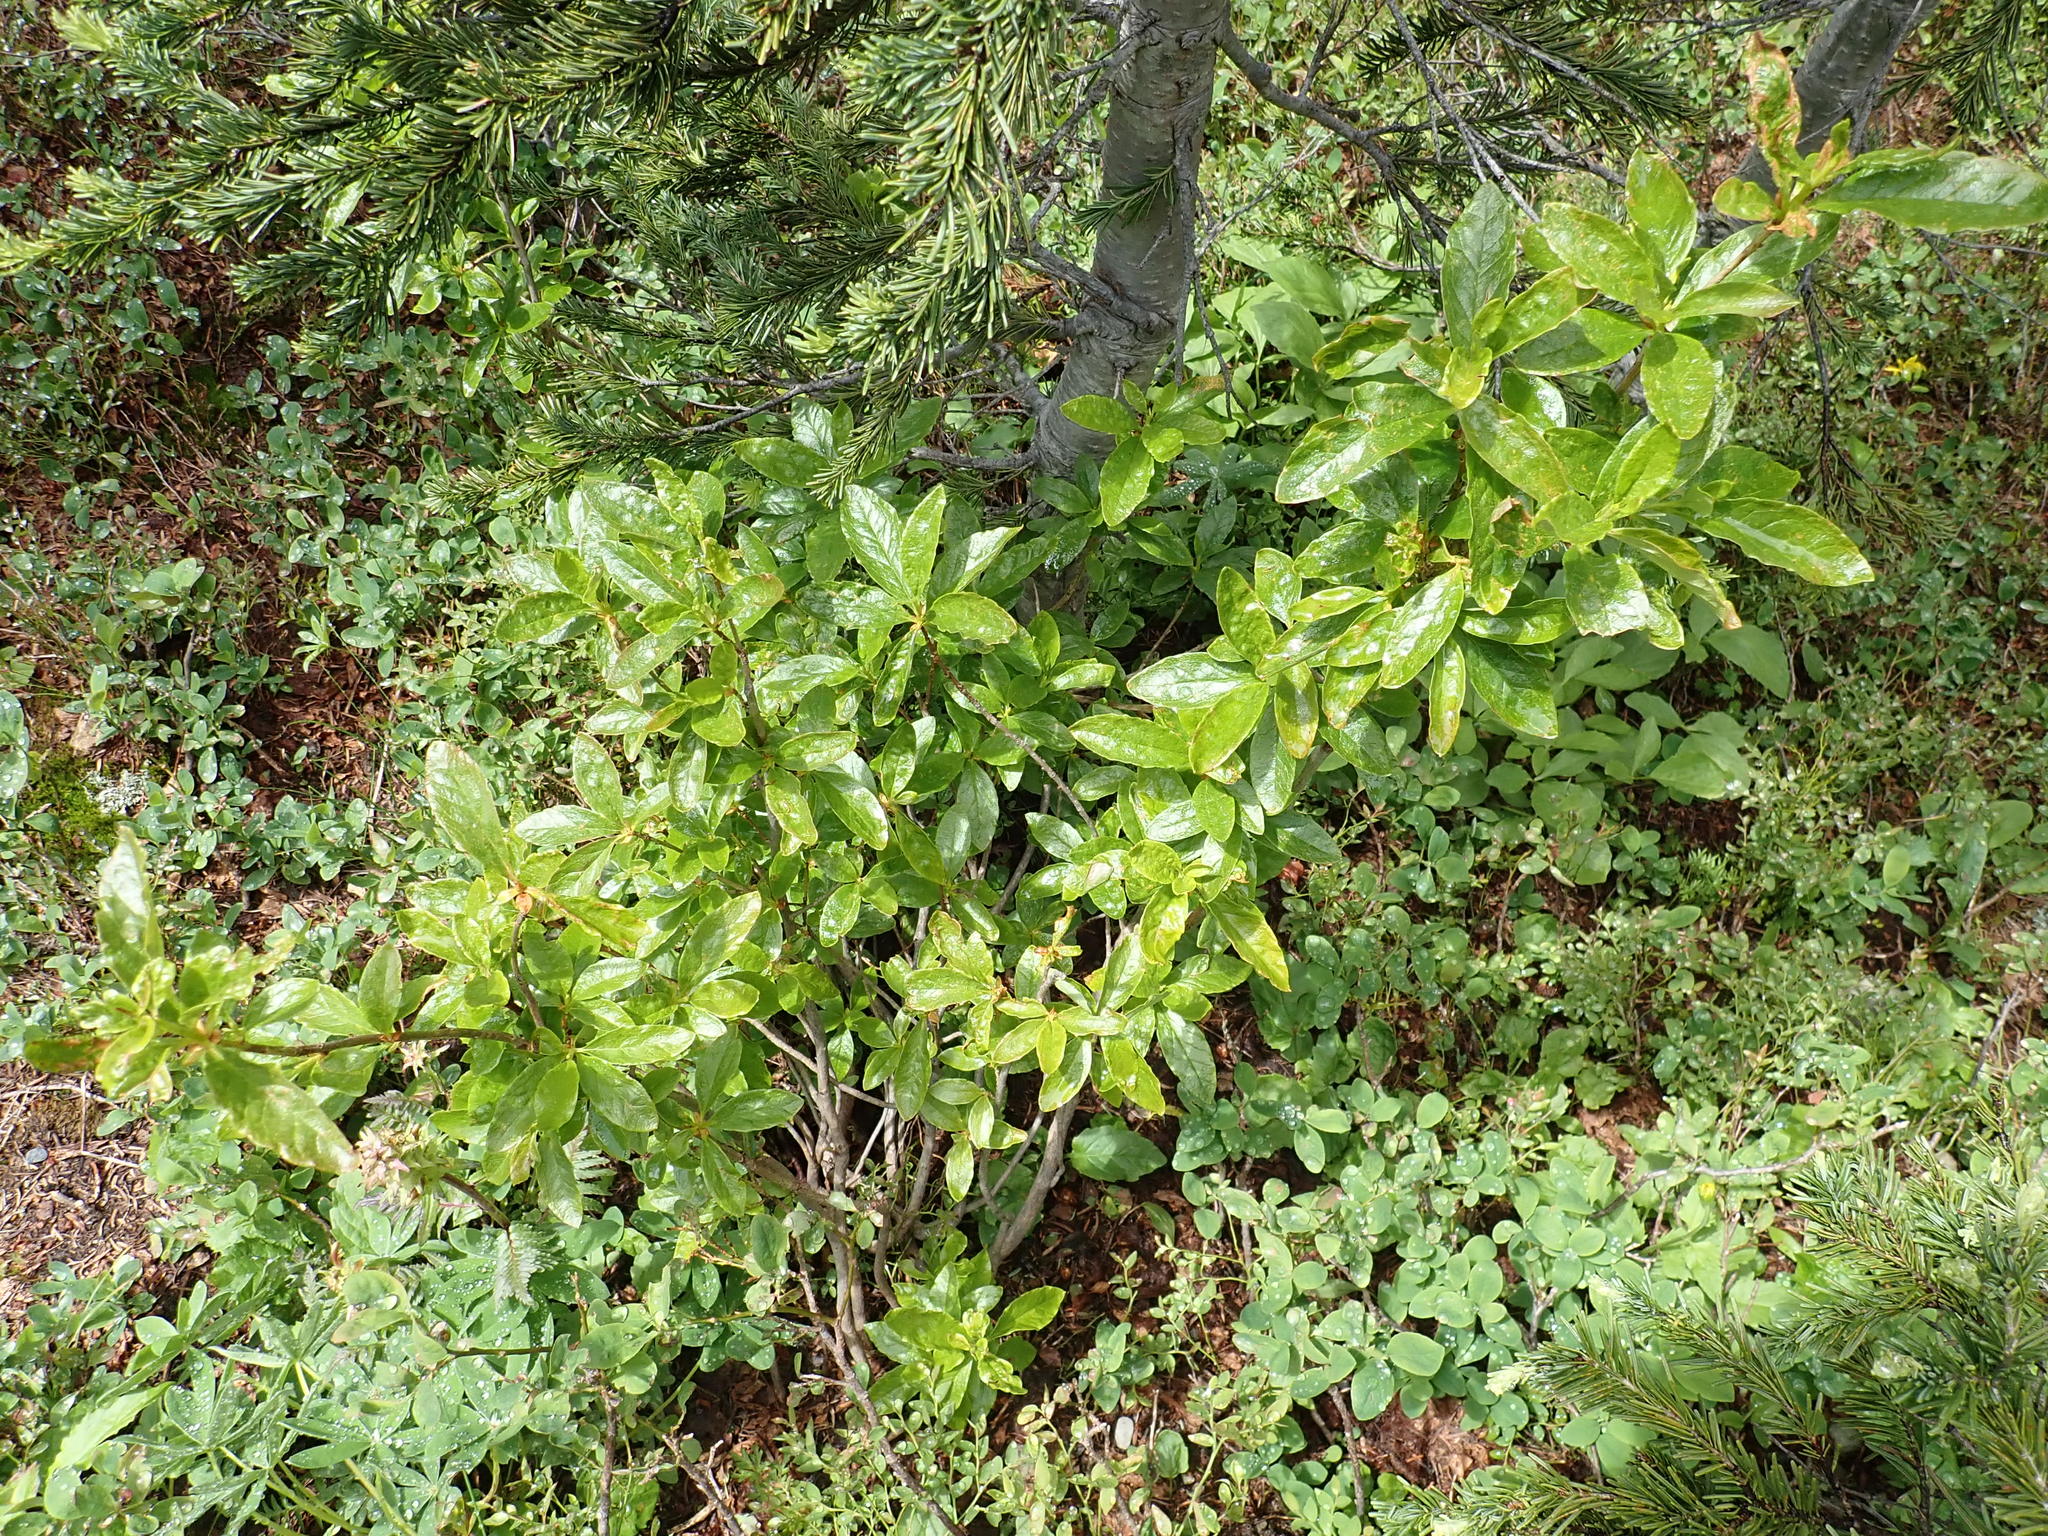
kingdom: Plantae
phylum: Tracheophyta
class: Magnoliopsida
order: Ericales
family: Ericaceae
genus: Rhododendron
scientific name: Rhododendron albiflorum
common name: White rhododendron
